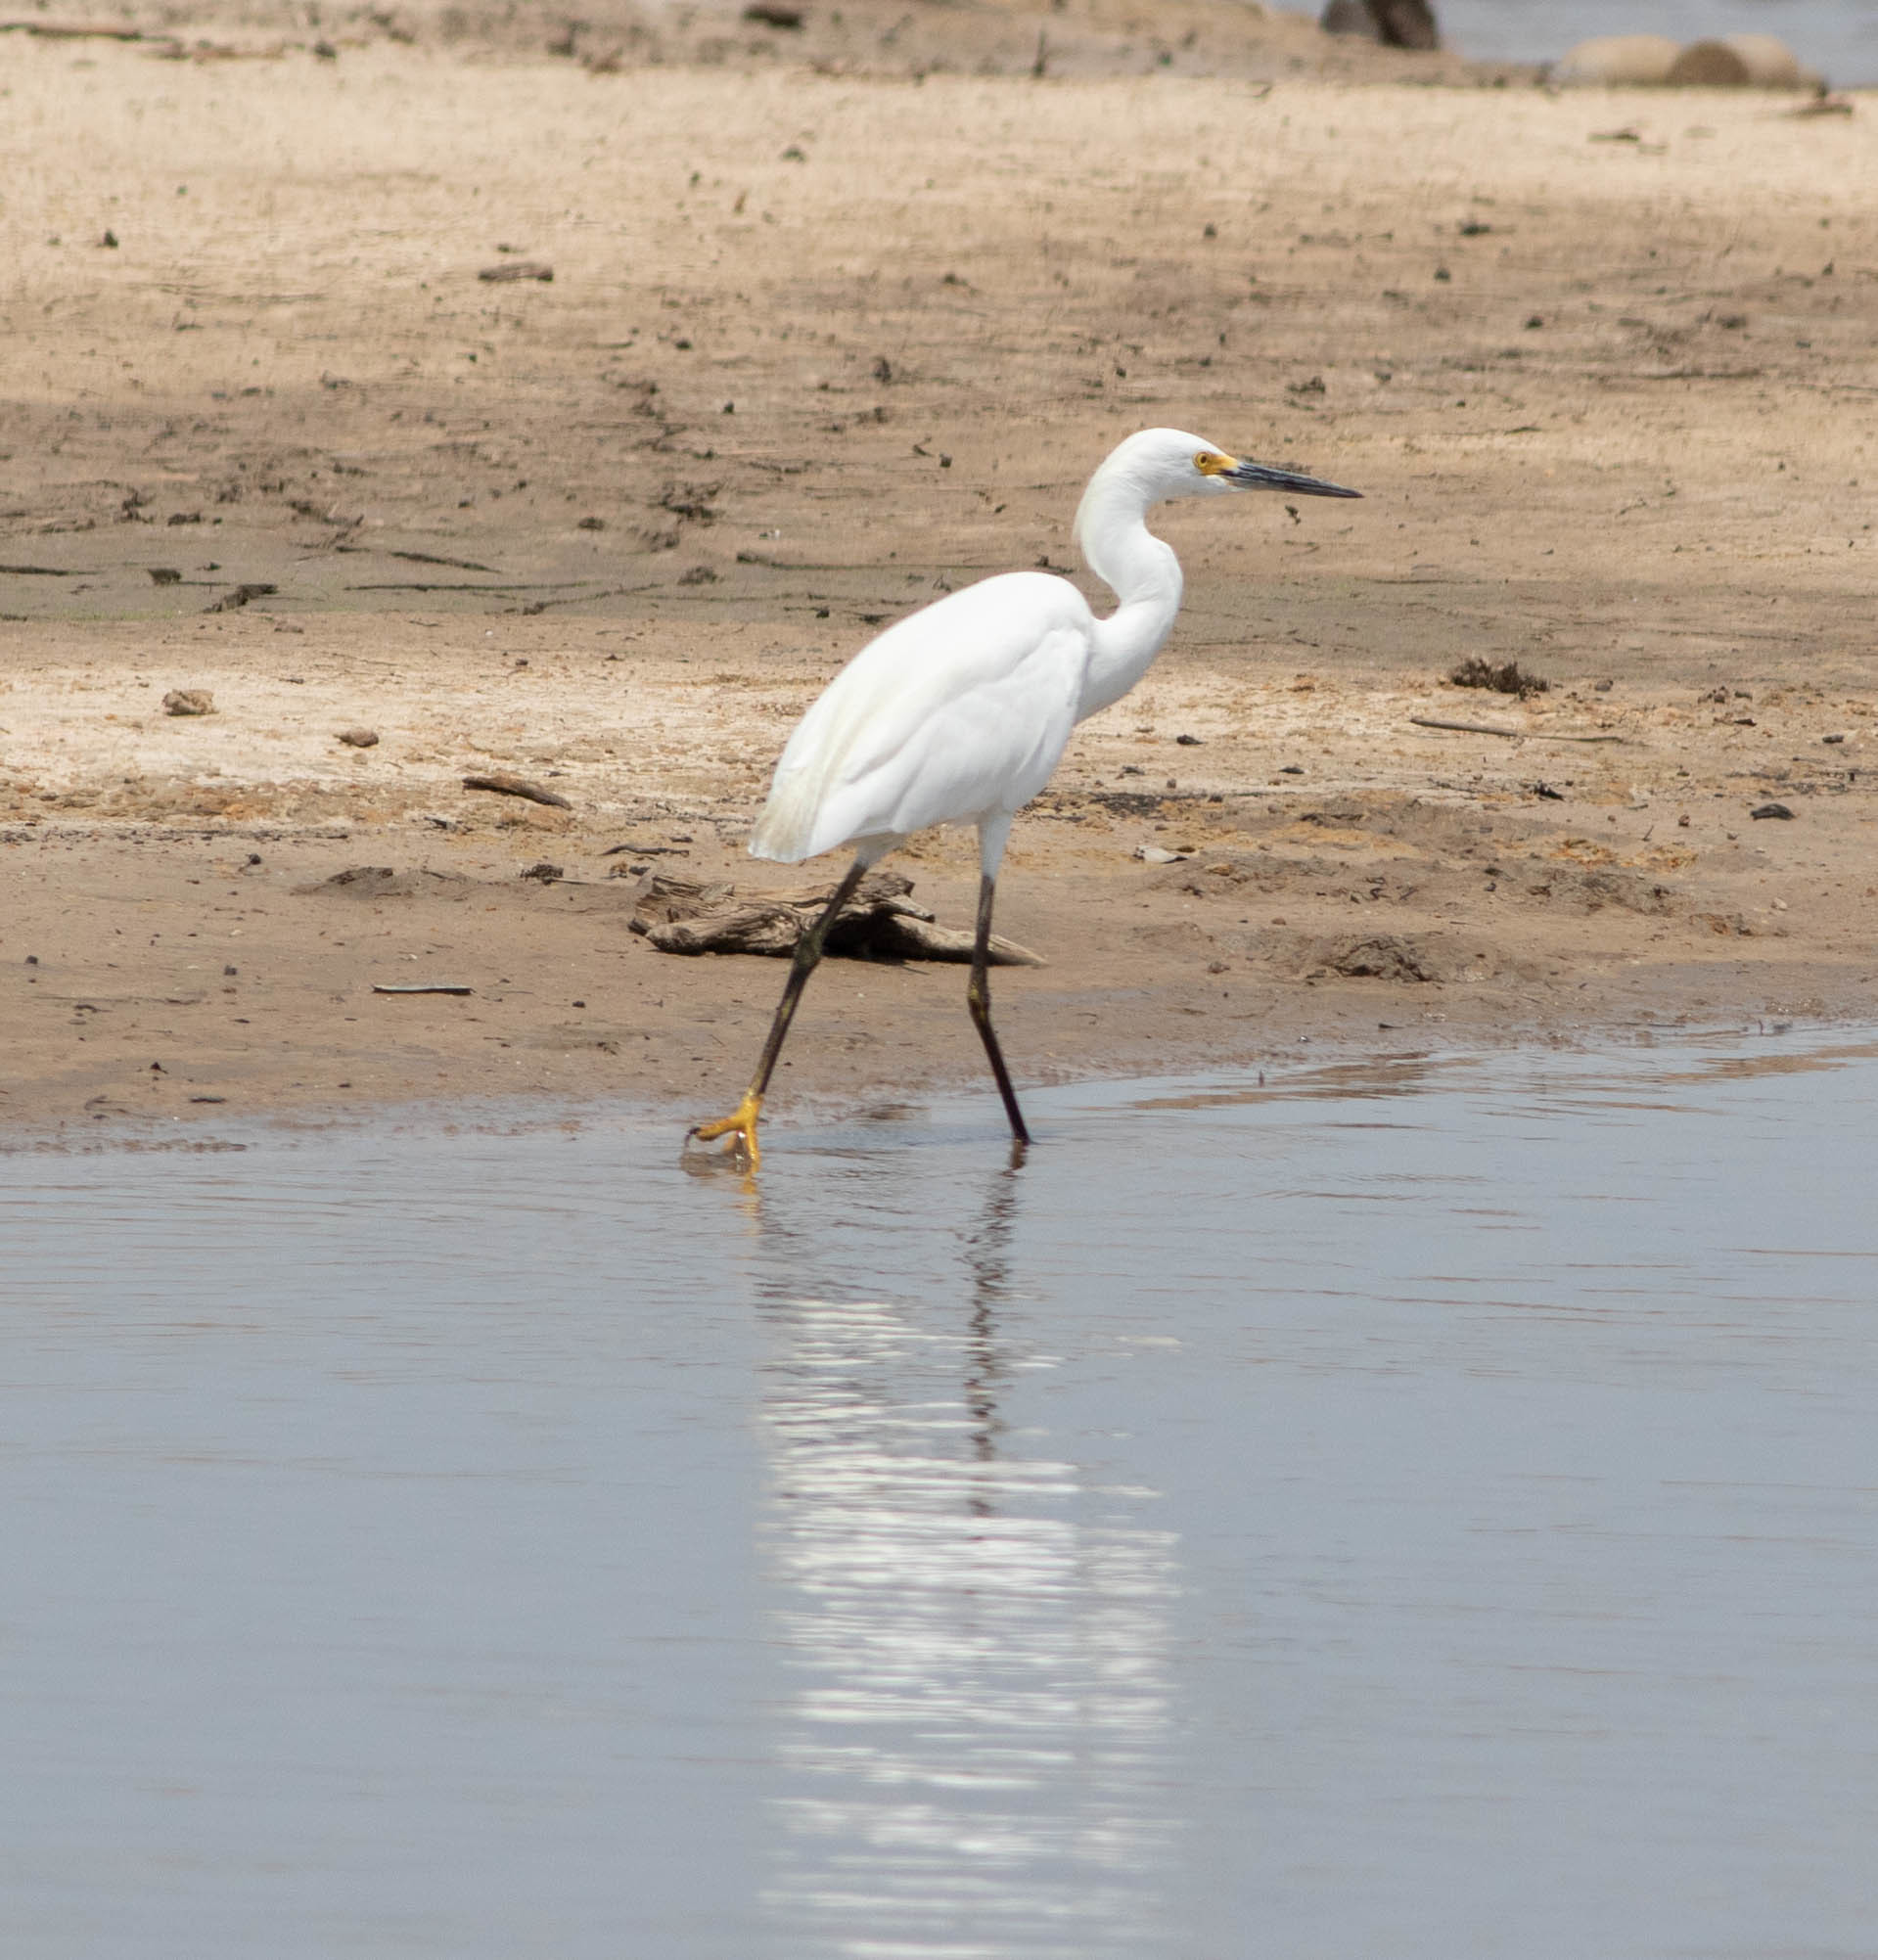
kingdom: Animalia
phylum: Chordata
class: Aves
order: Pelecaniformes
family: Ardeidae
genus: Egretta
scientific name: Egretta thula
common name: Snowy egret
